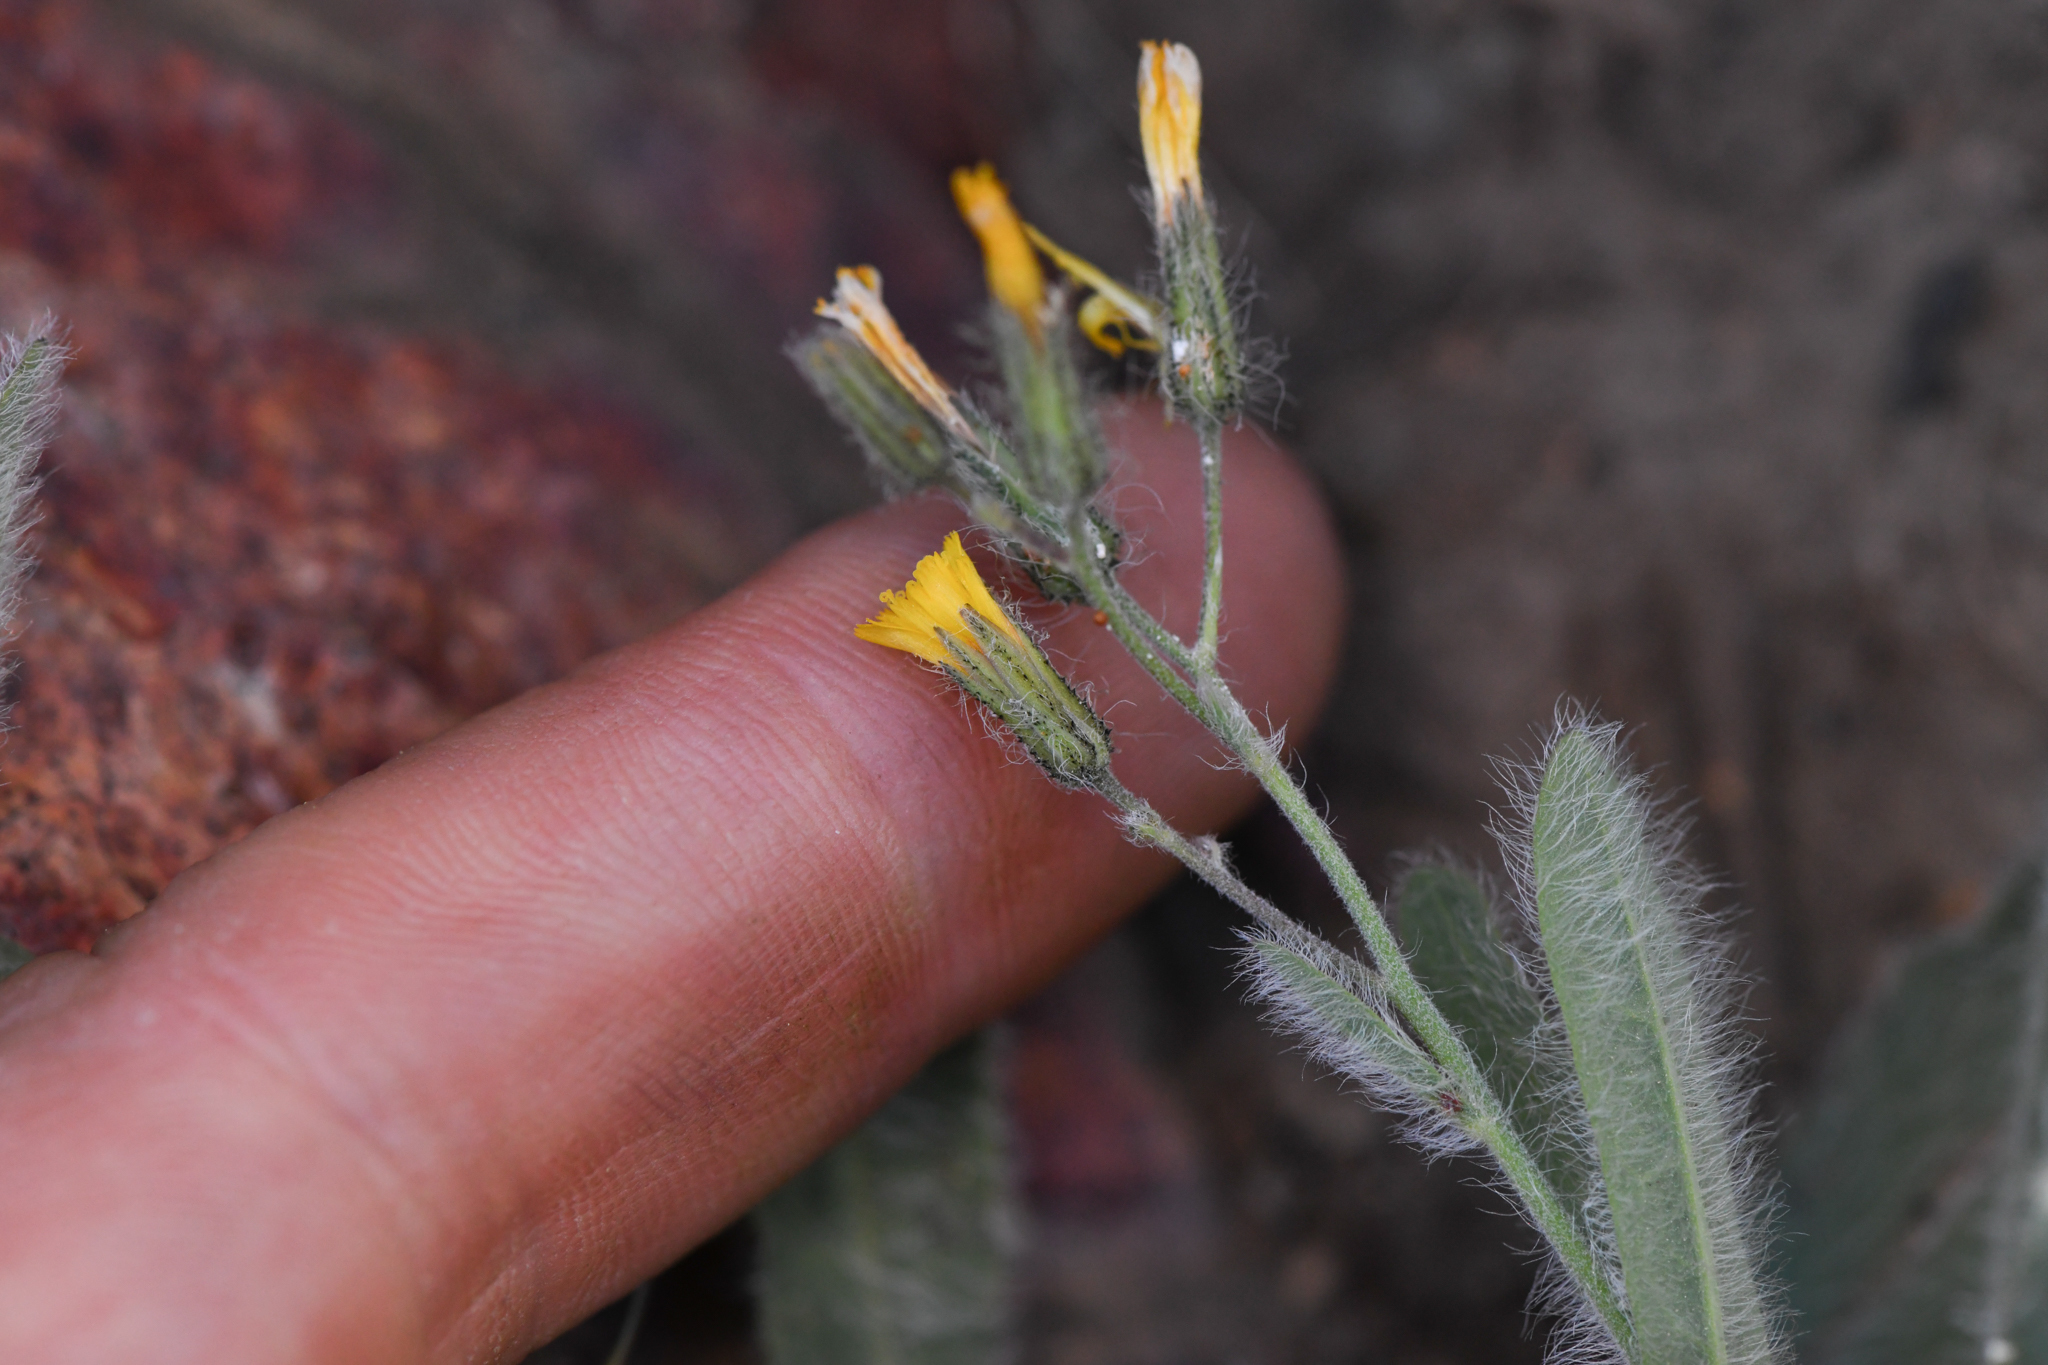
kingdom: Plantae
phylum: Tracheophyta
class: Magnoliopsida
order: Asterales
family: Asteraceae
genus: Hieracium
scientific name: Hieracium horridum
